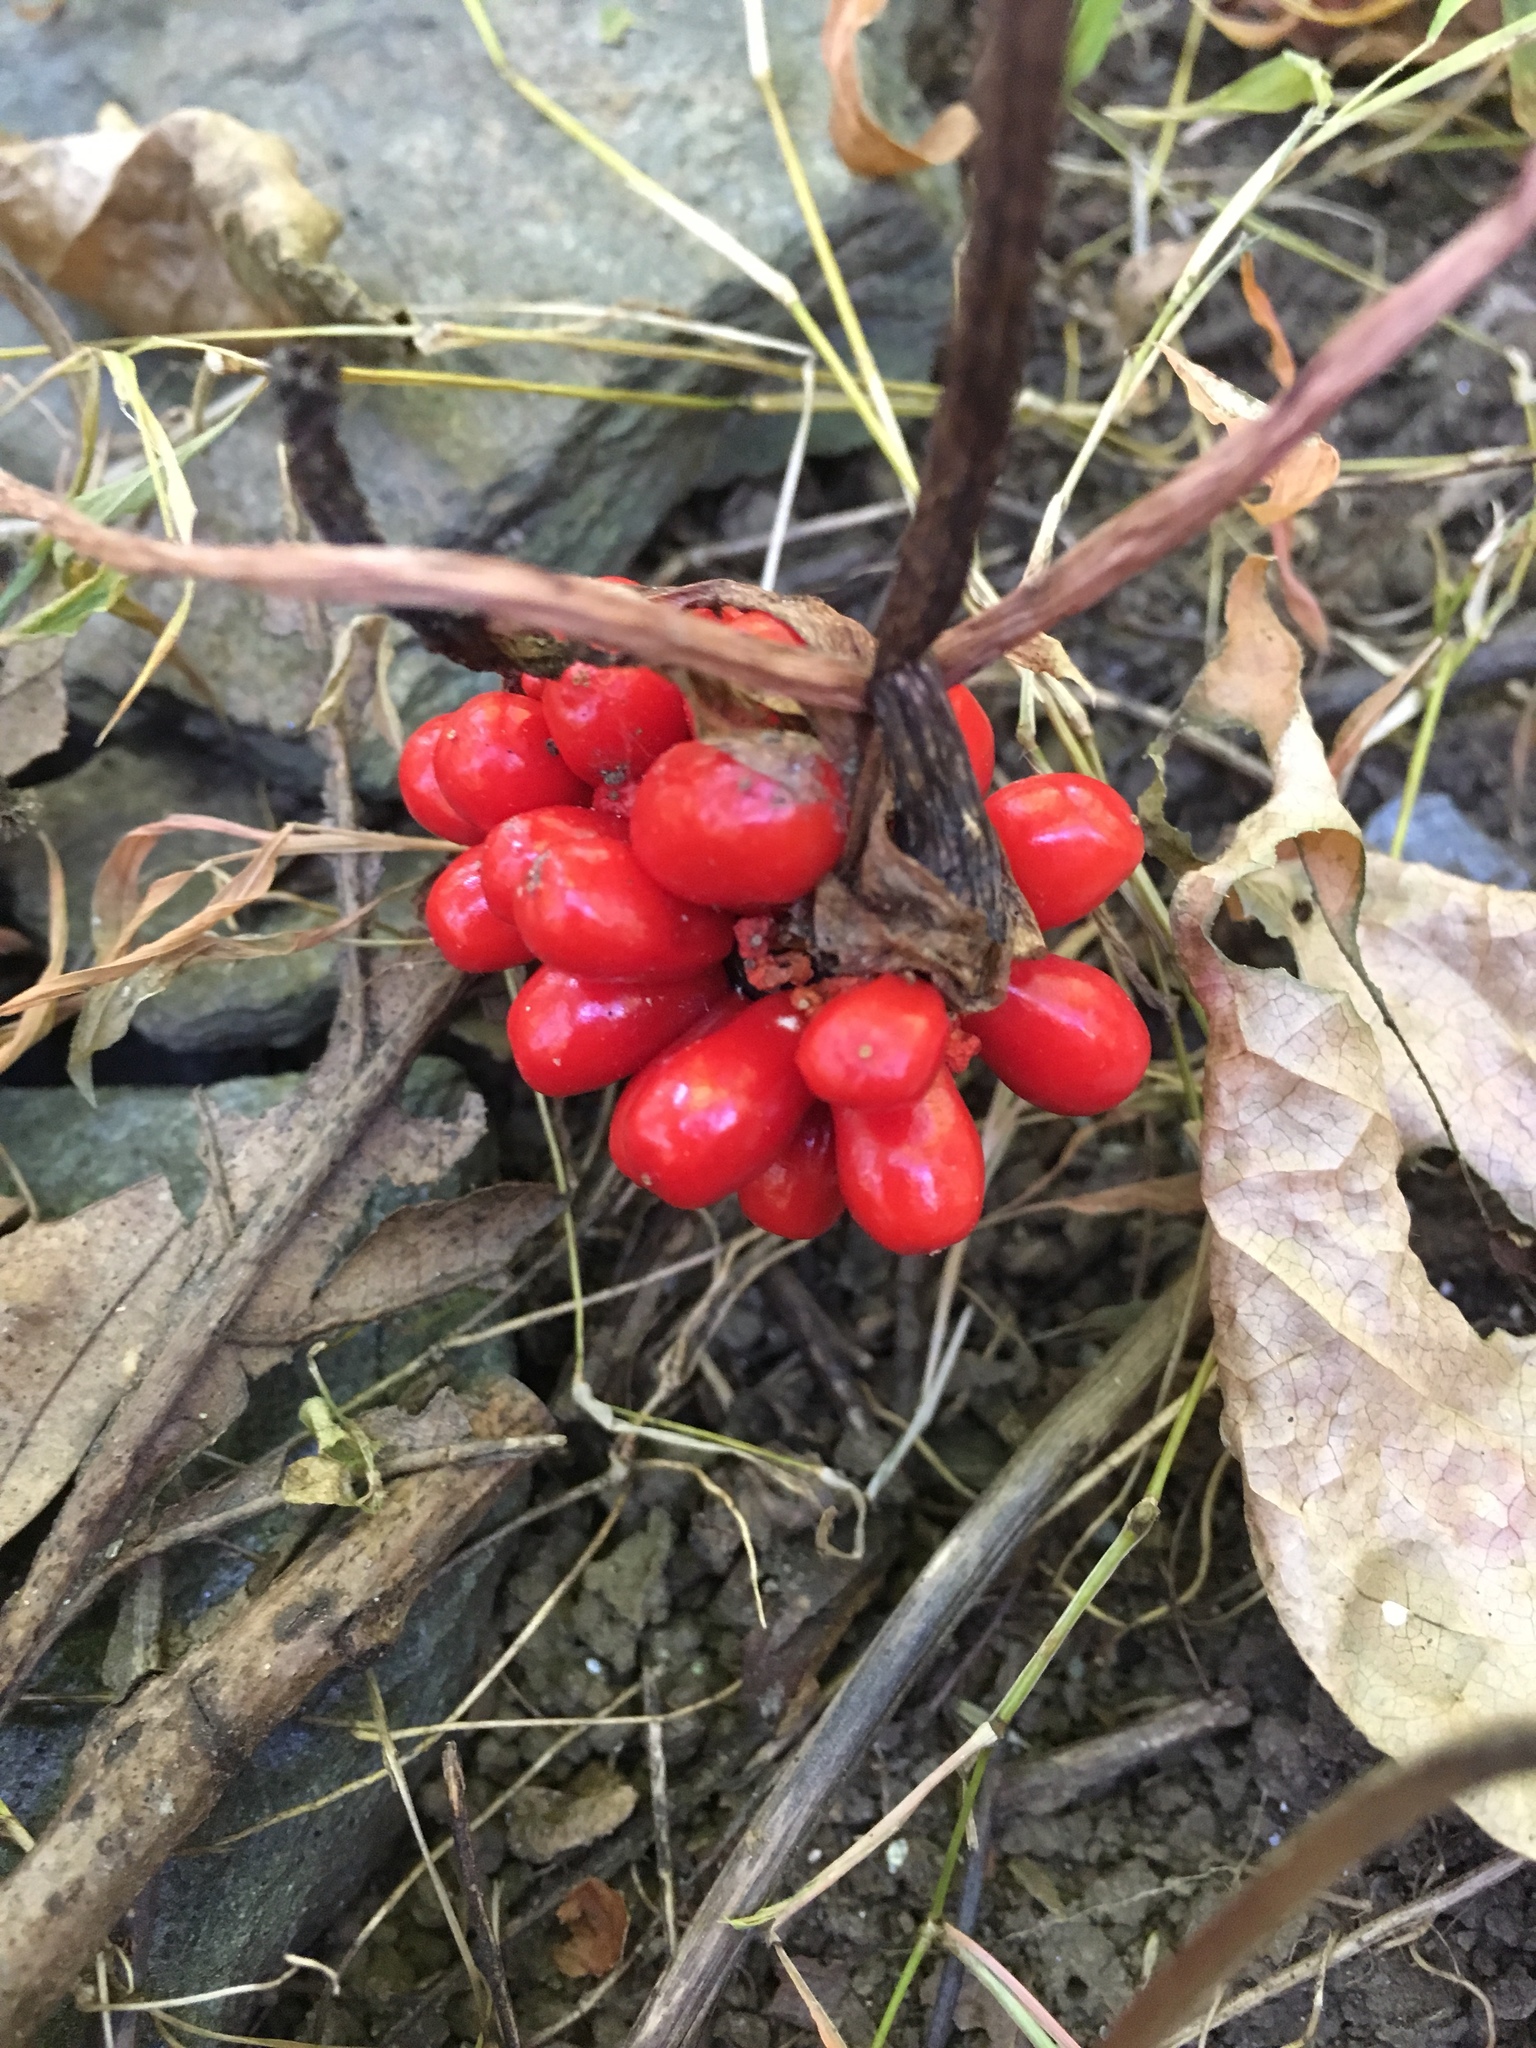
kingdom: Plantae
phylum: Tracheophyta
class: Liliopsida
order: Alismatales
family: Araceae
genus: Arisaema
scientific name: Arisaema triphyllum
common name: Jack-in-the-pulpit
